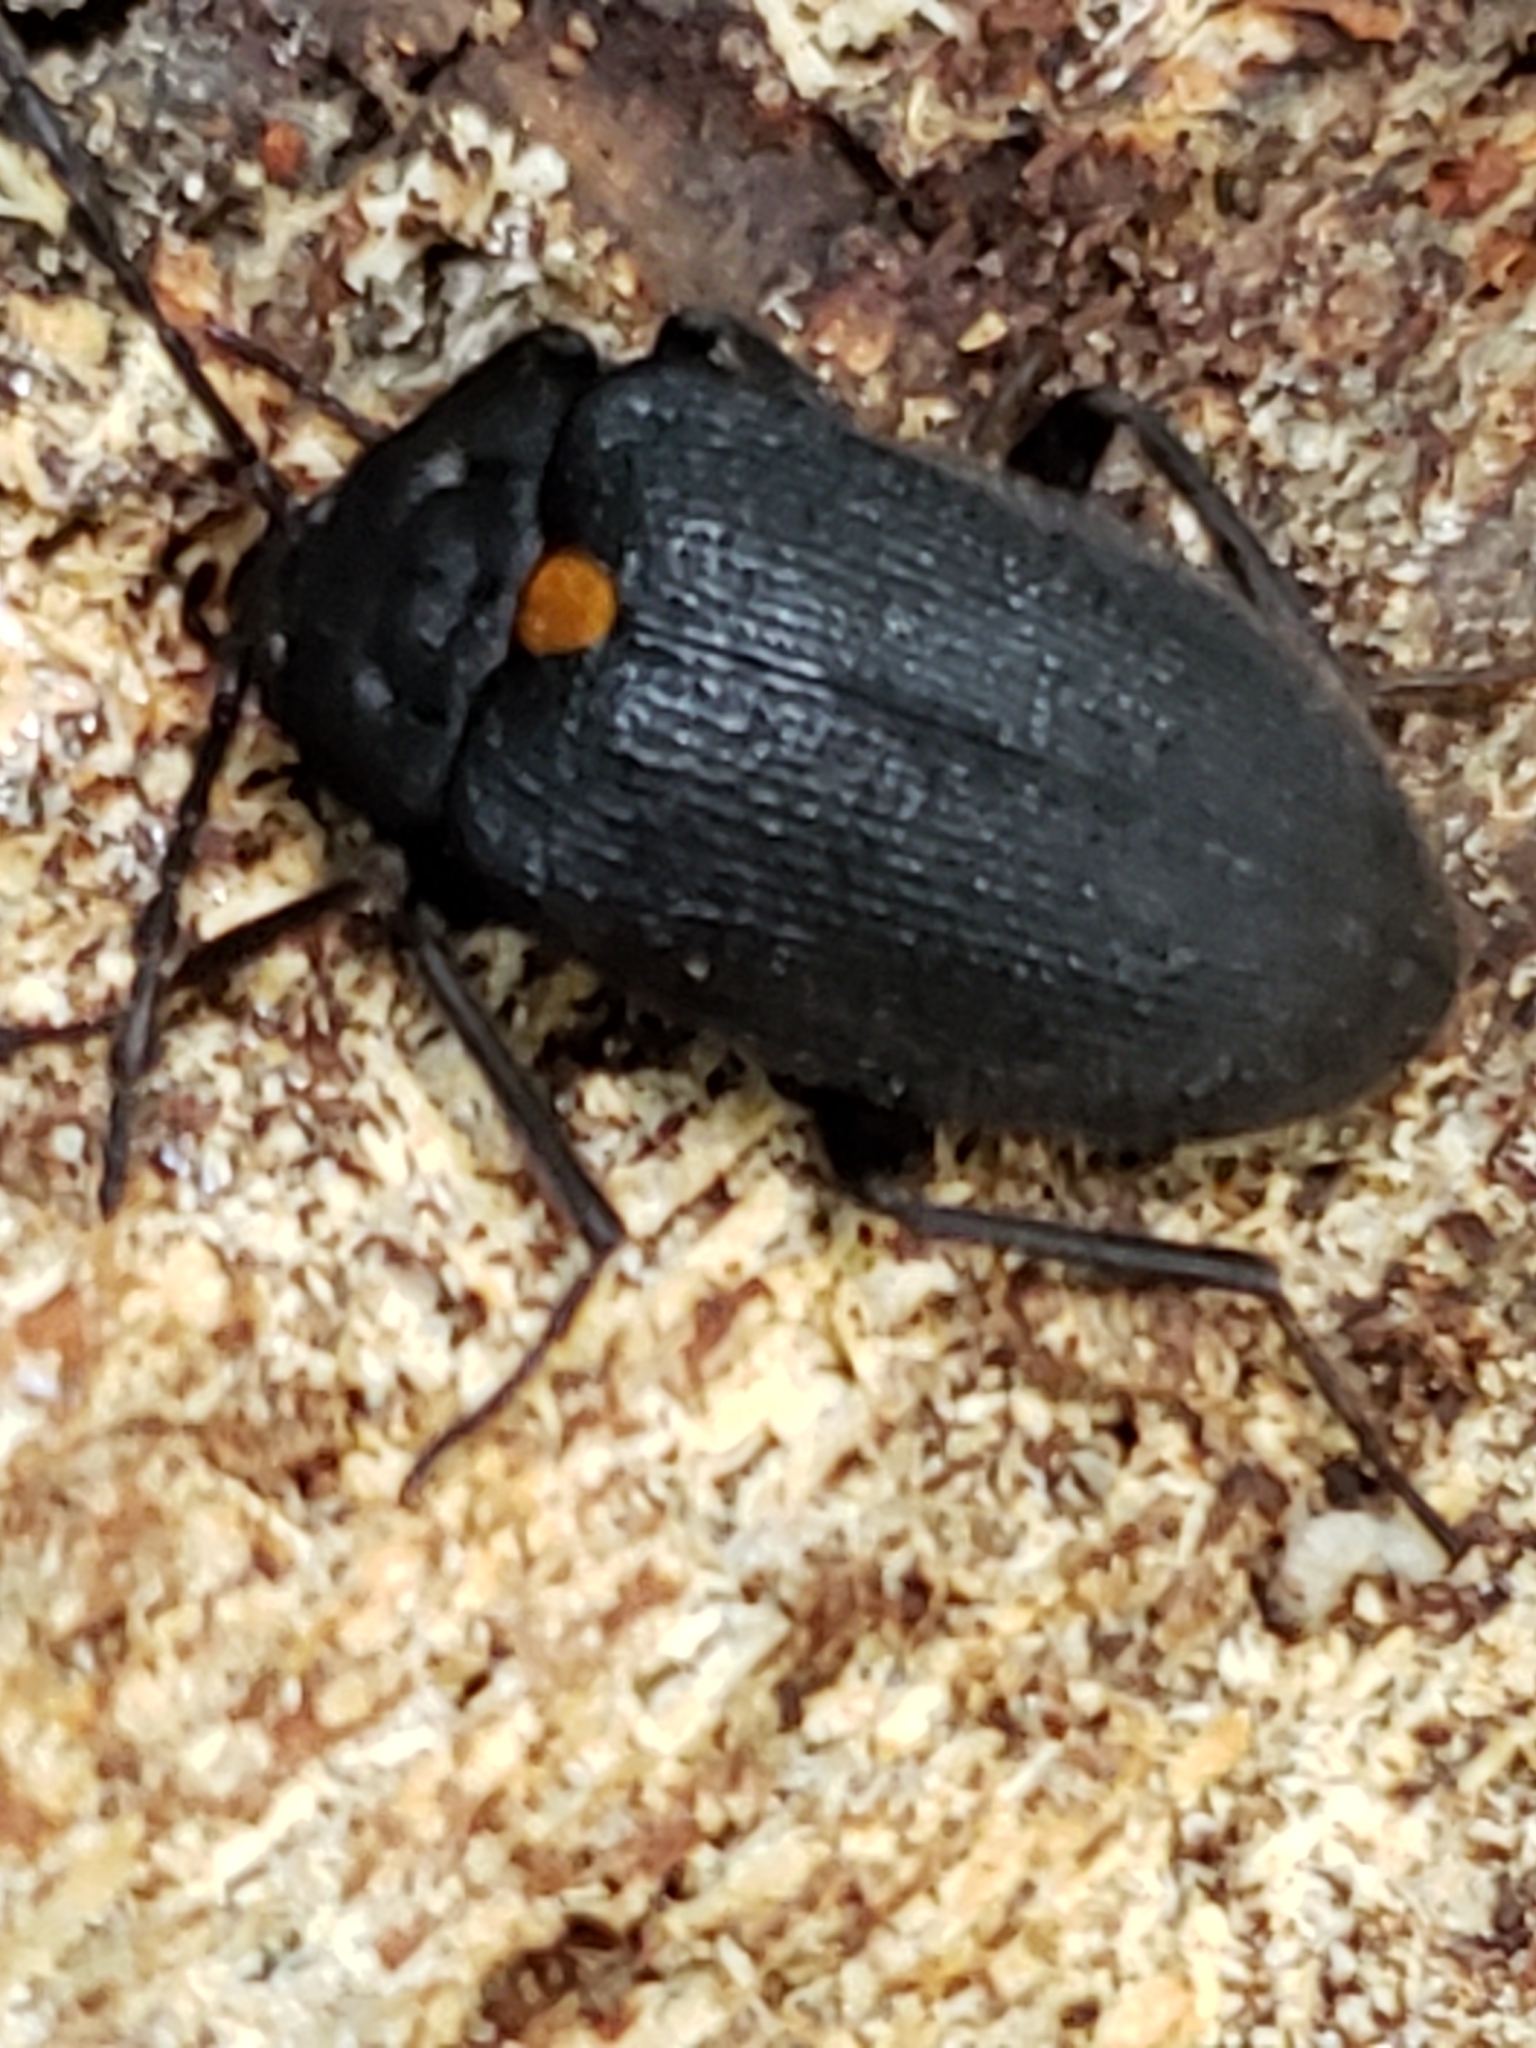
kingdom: Animalia
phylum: Arthropoda
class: Insecta
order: Coleoptera
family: Tetratomidae
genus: Penthe
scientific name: Penthe obliquata
